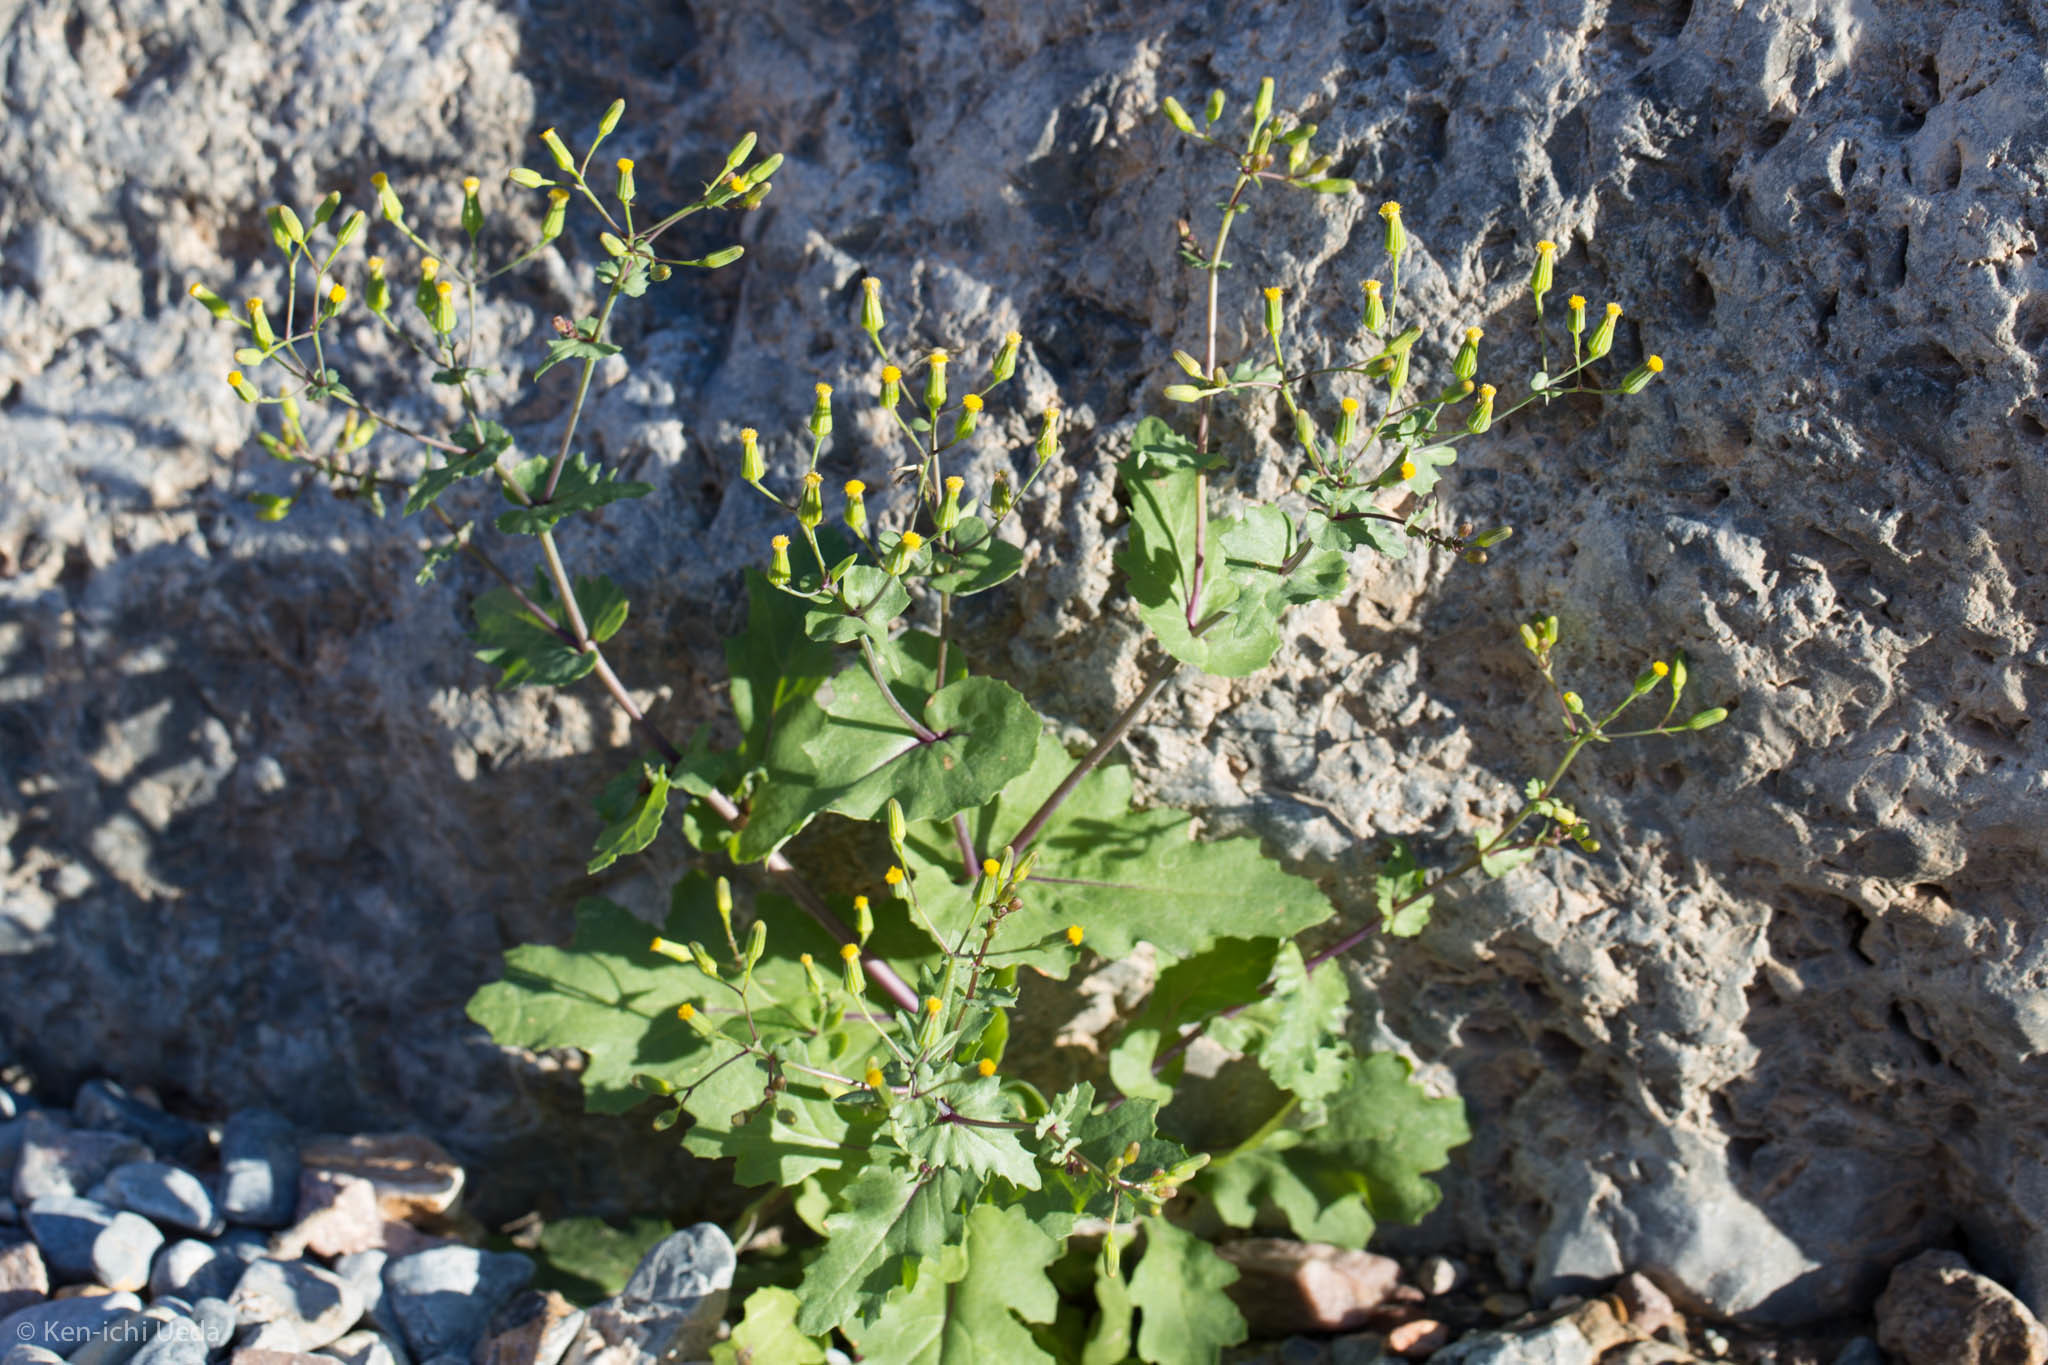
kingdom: Plantae
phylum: Tracheophyta
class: Magnoliopsida
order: Asterales
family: Asteraceae
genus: Senecio
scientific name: Senecio mohavensis
